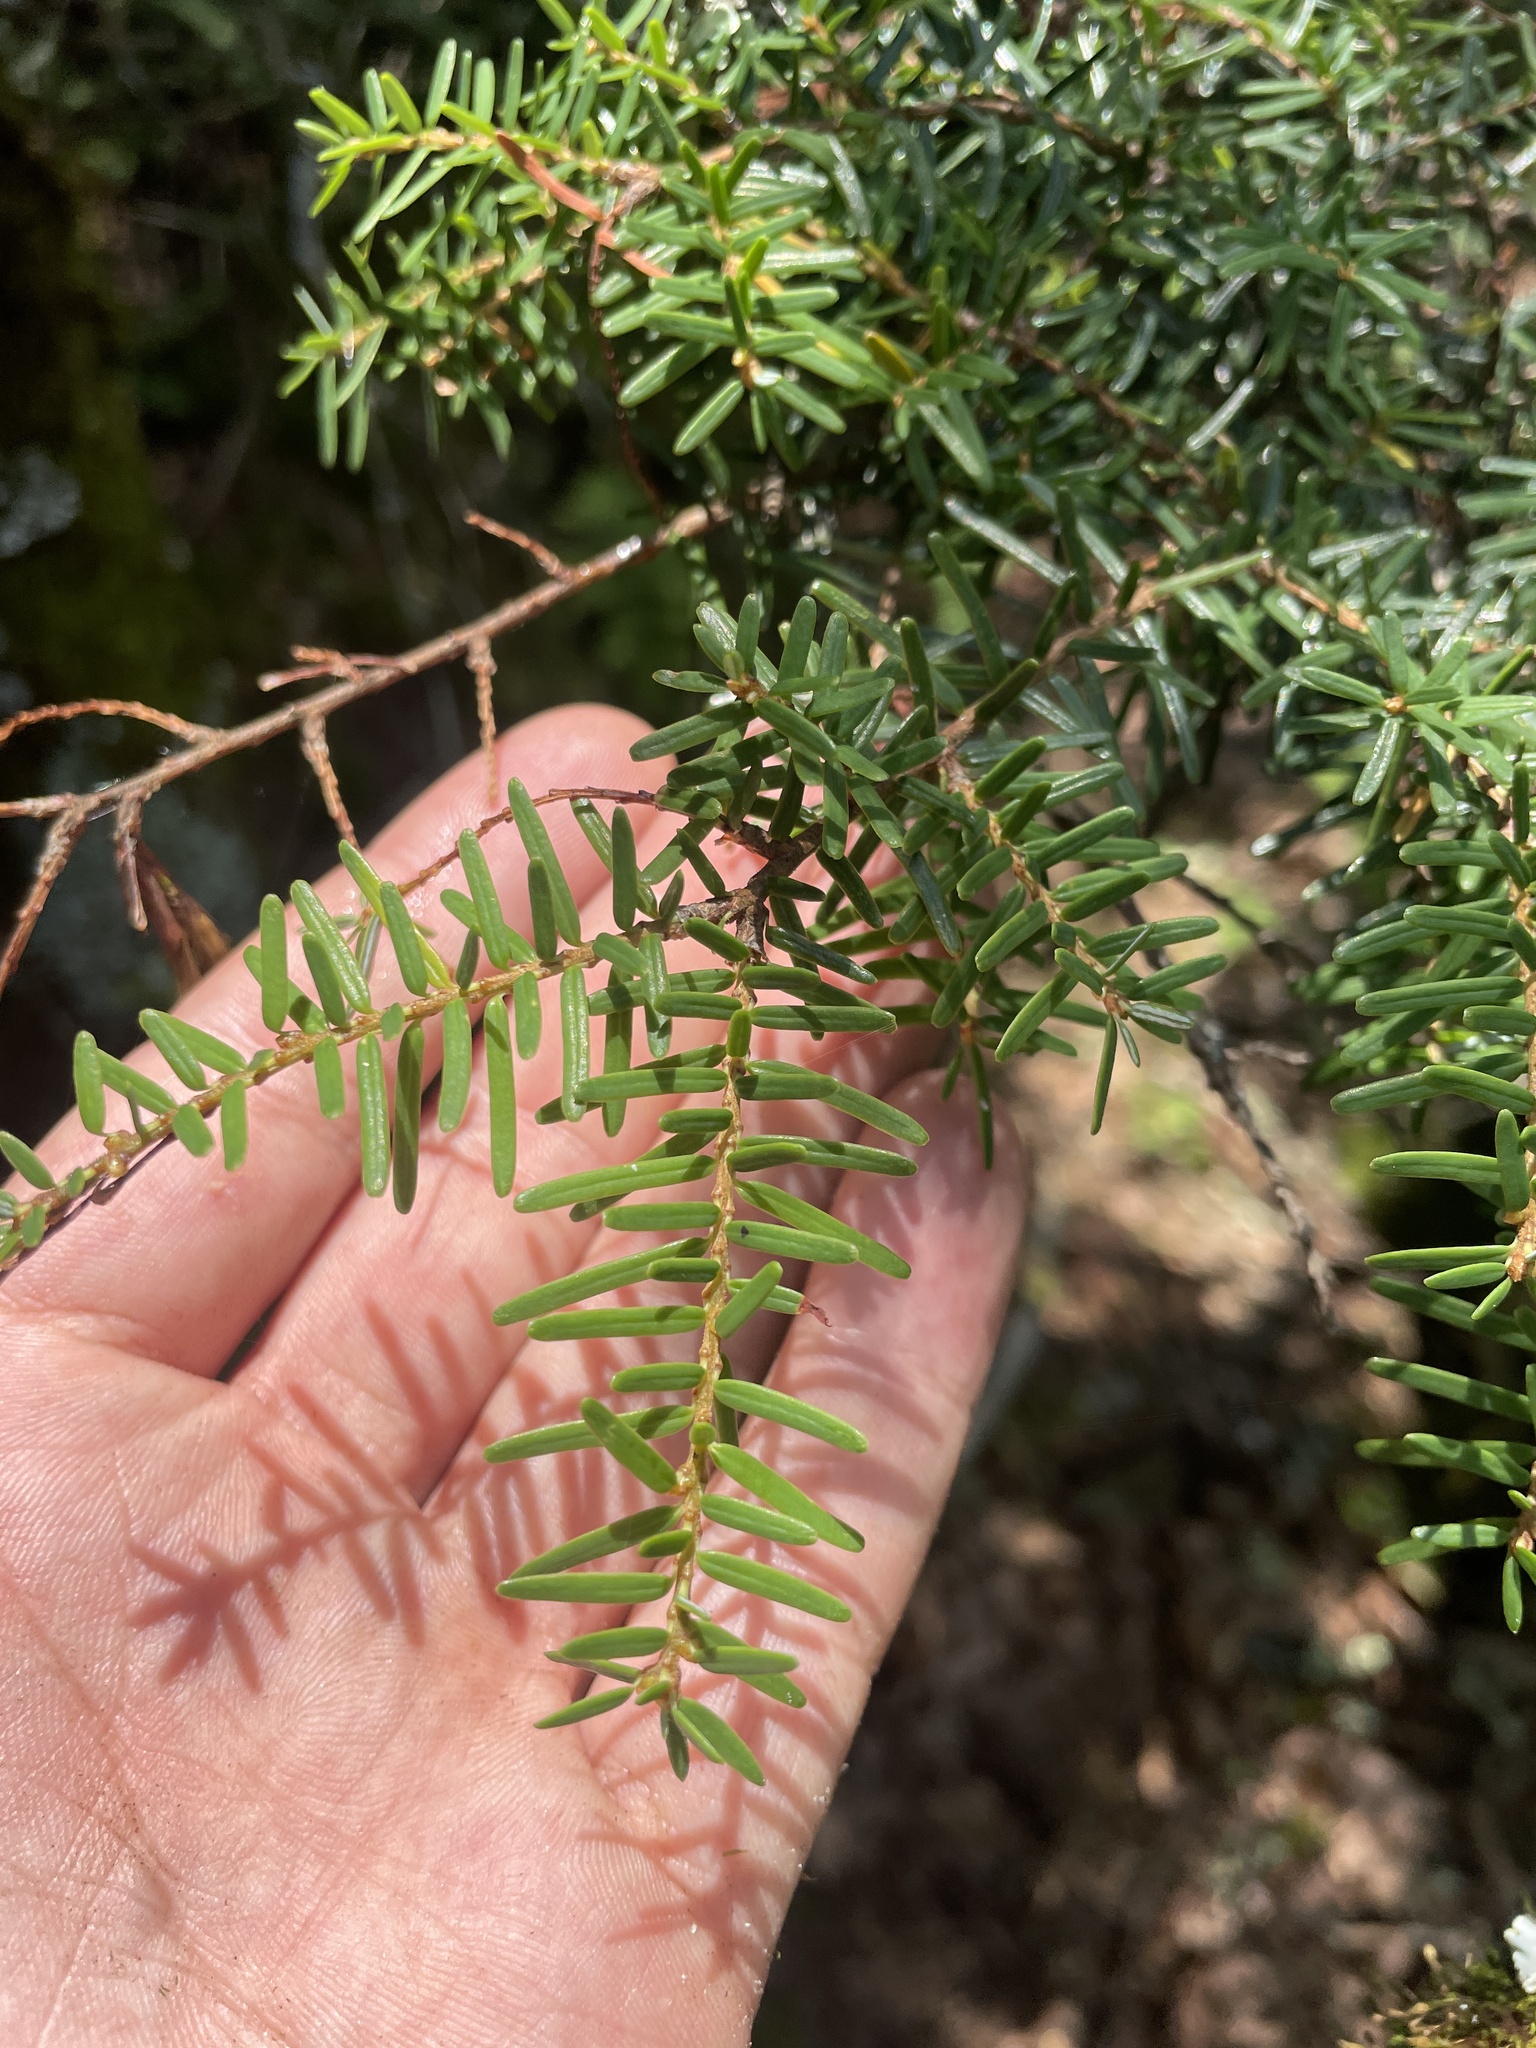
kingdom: Plantae
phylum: Tracheophyta
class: Pinopsida
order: Pinales
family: Pinaceae
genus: Tsuga
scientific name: Tsuga caroliniana
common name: Carolina hemlock
